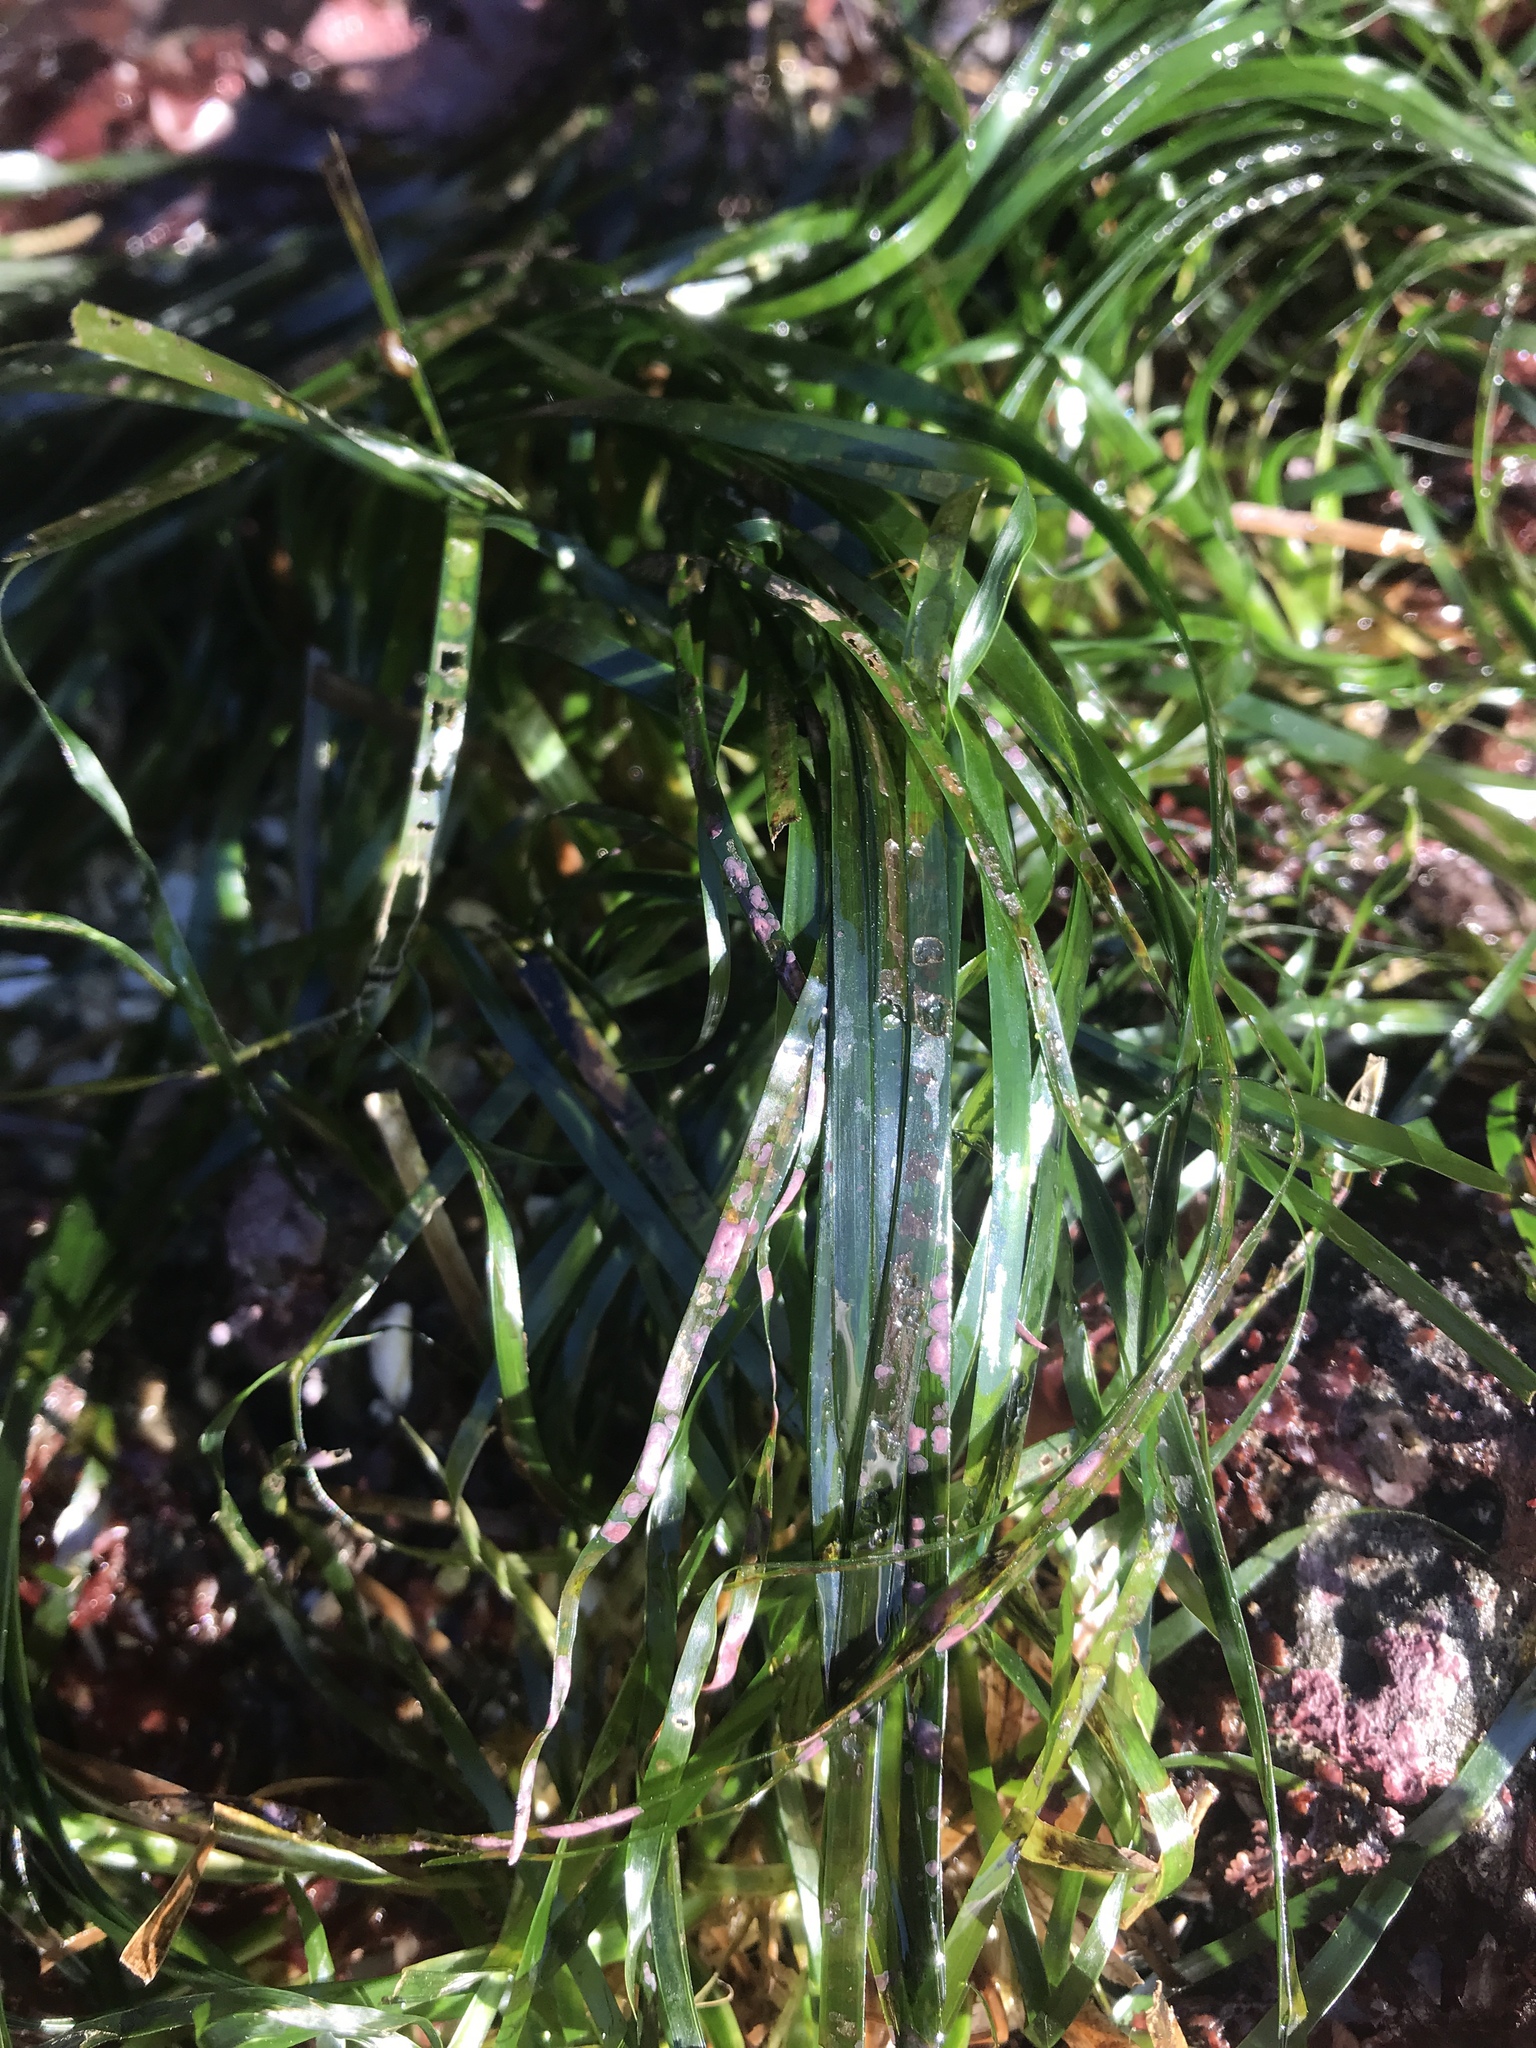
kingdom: Plantae
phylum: Tracheophyta
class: Liliopsida
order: Alismatales
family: Zosteraceae
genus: Phyllospadix
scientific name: Phyllospadix scouleri
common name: Species code: ps
